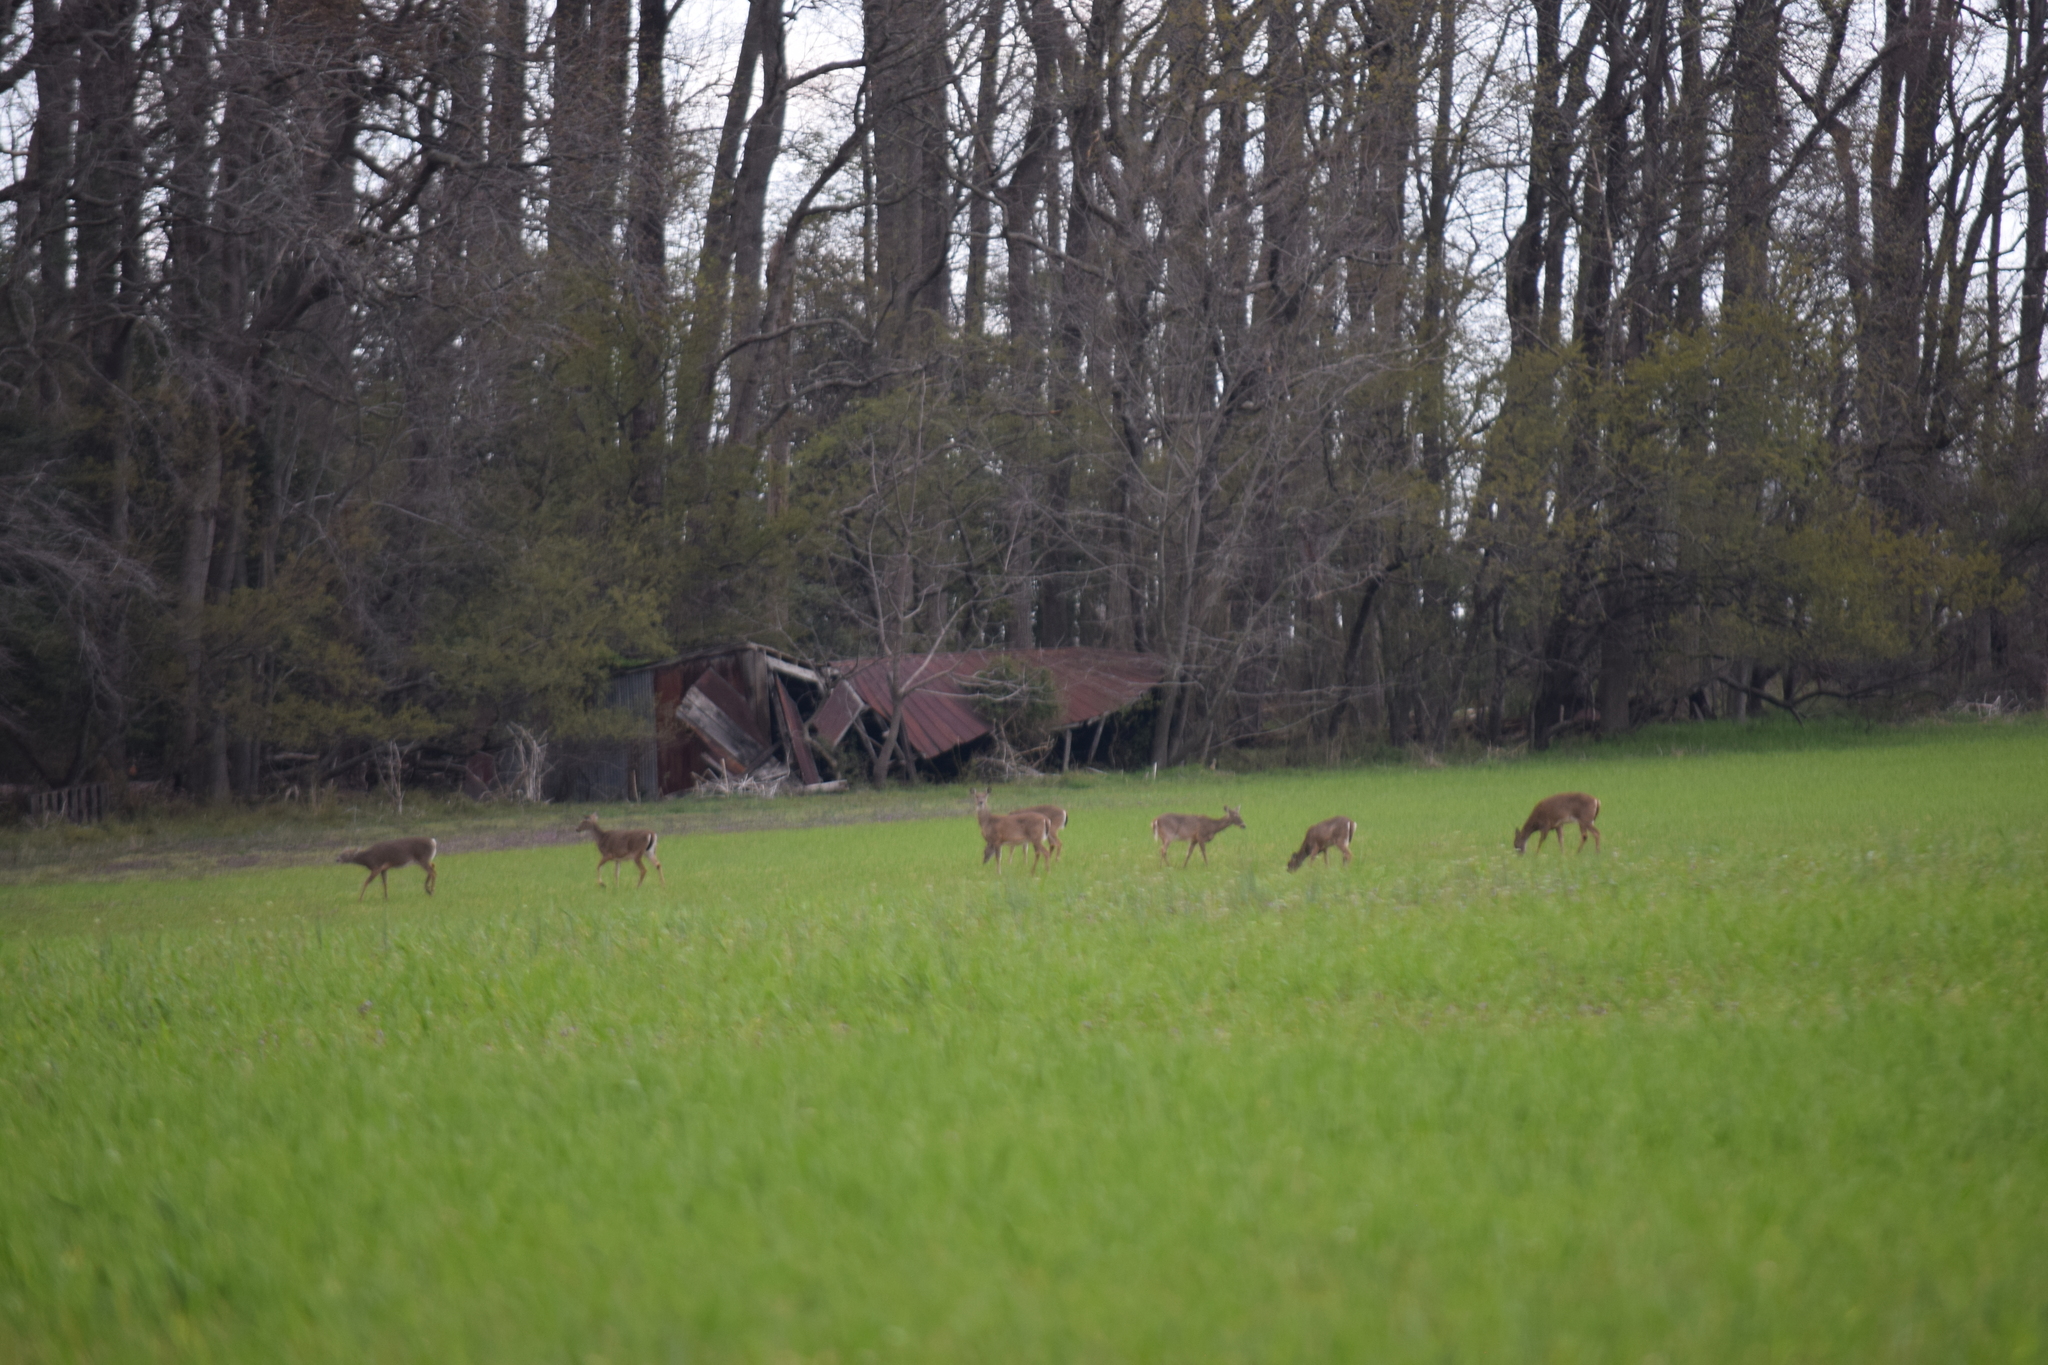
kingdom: Animalia
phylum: Chordata
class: Mammalia
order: Artiodactyla
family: Cervidae
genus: Odocoileus
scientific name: Odocoileus virginianus
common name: White-tailed deer
